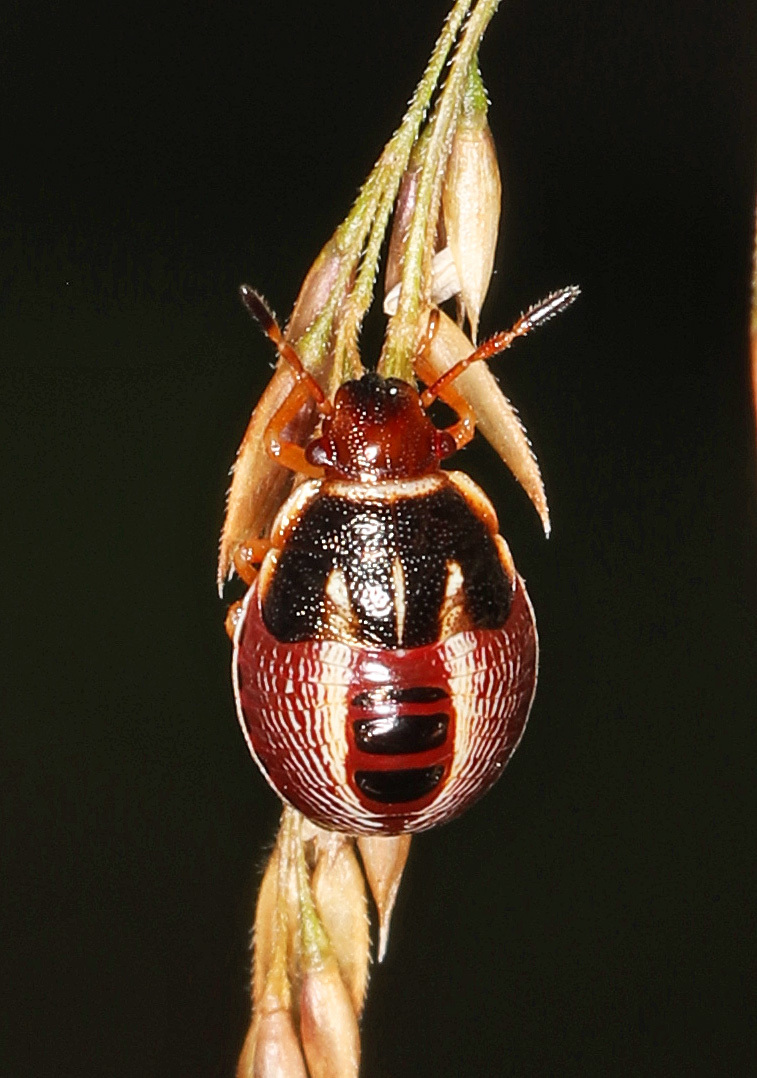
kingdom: Animalia
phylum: Arthropoda
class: Insecta
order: Hemiptera
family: Pentatomidae
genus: Mormidea
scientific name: Mormidea lugens
